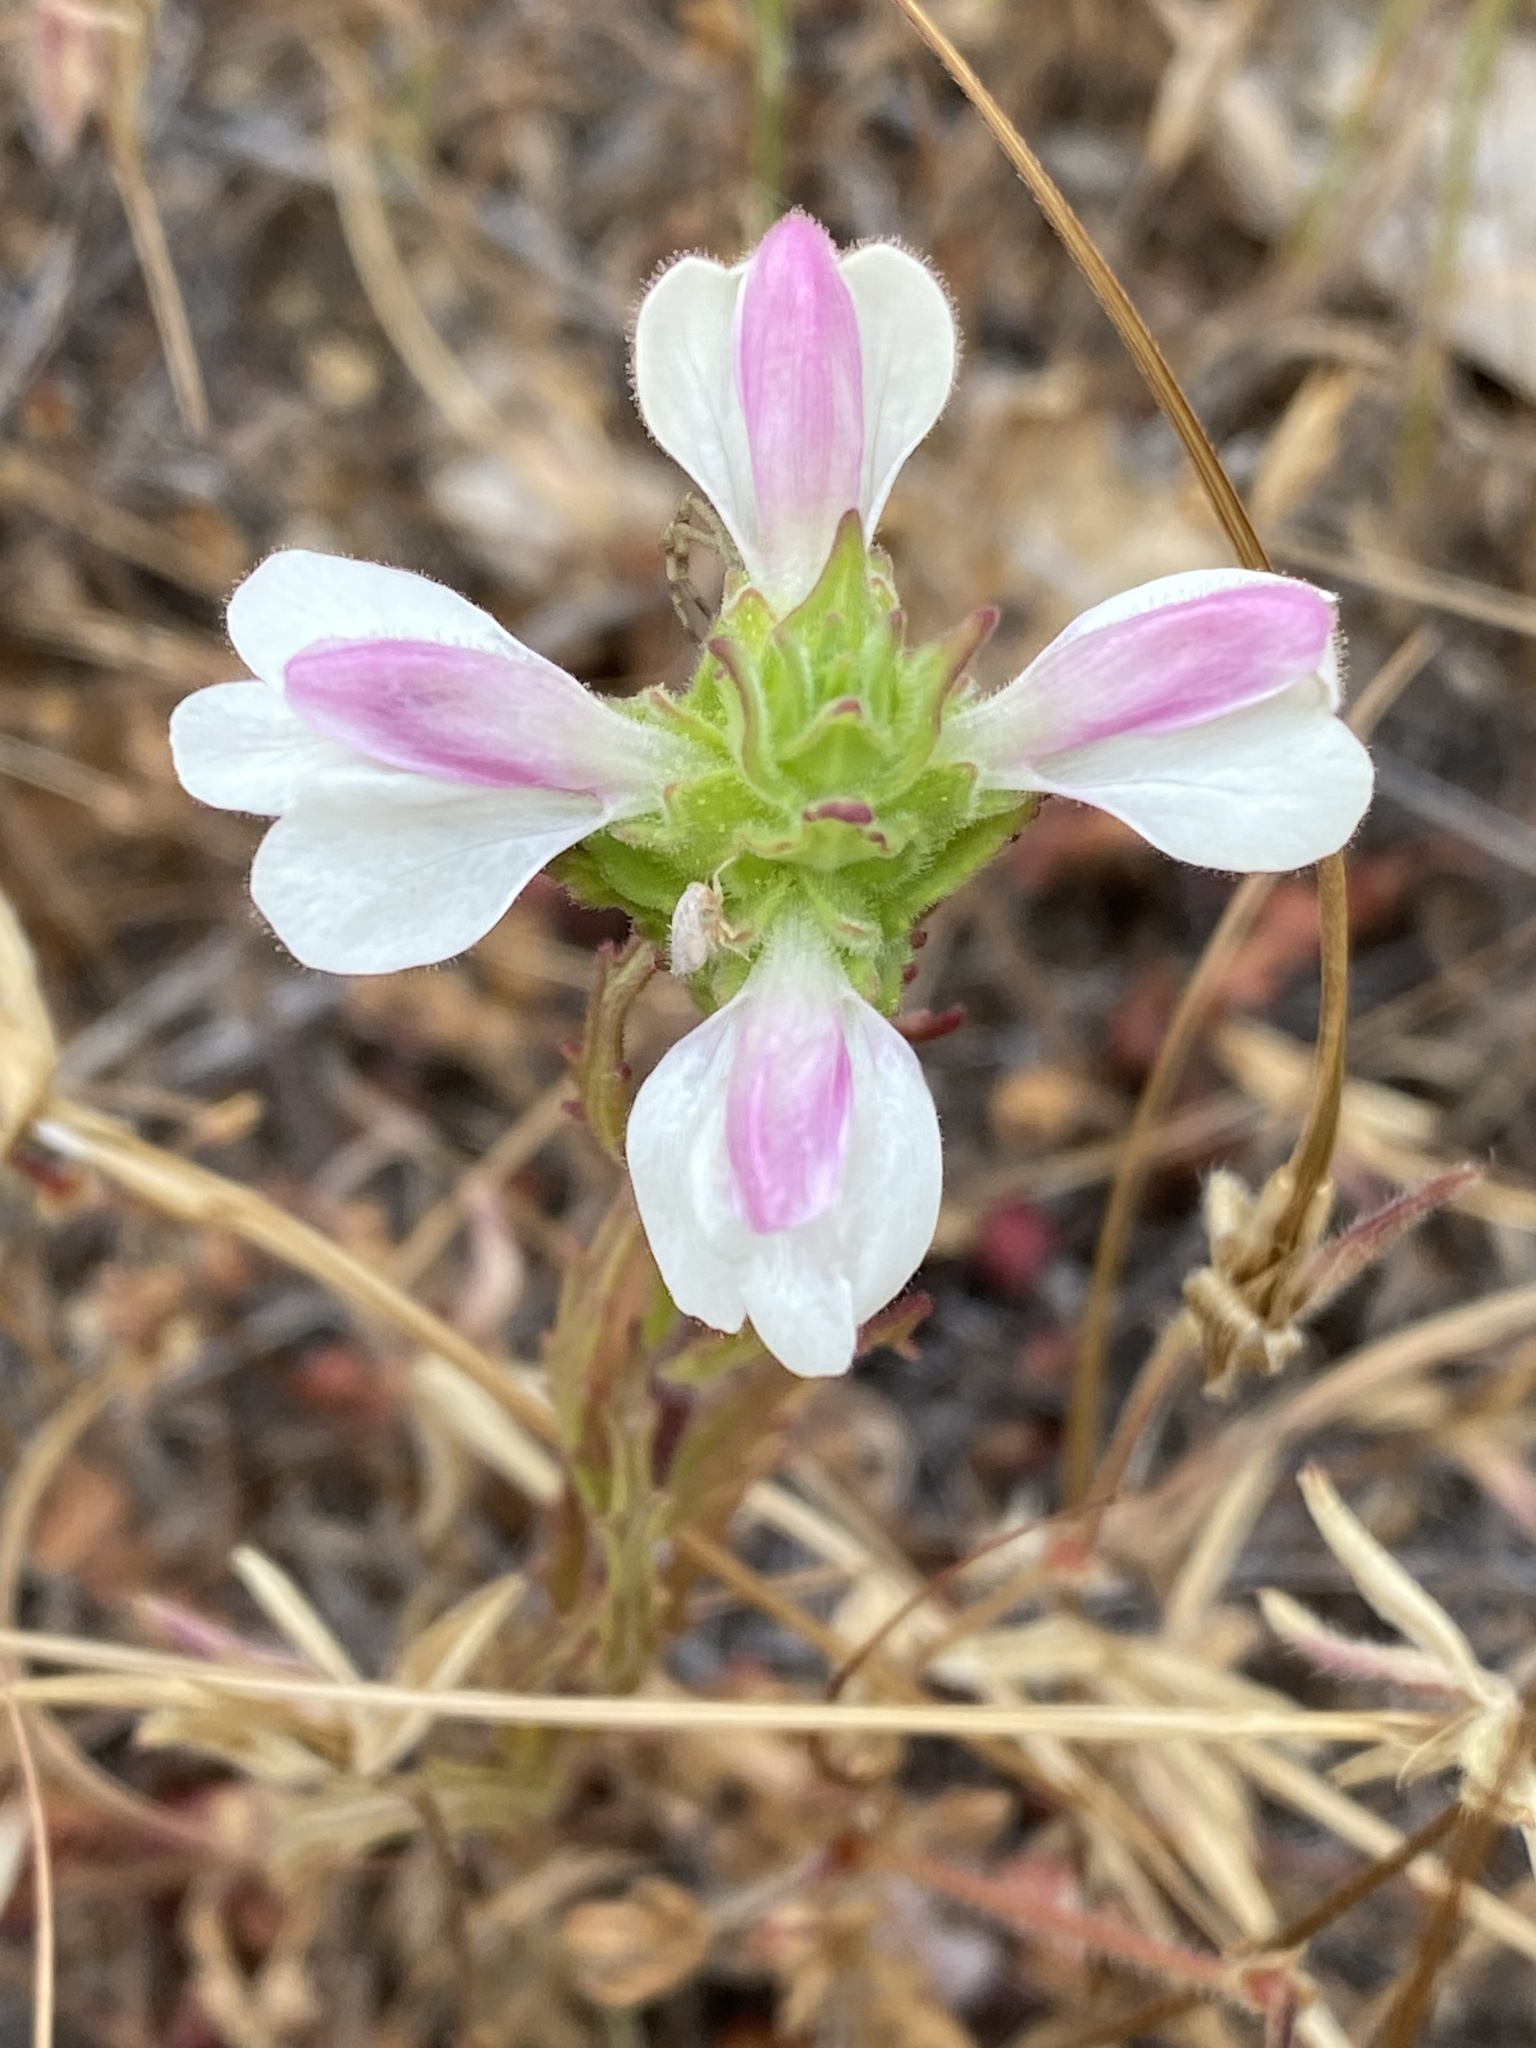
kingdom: Plantae
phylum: Tracheophyta
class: Magnoliopsida
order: Lamiales
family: Orobanchaceae
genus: Bellardia
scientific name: Bellardia trixago
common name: Mediterranean lineseed
